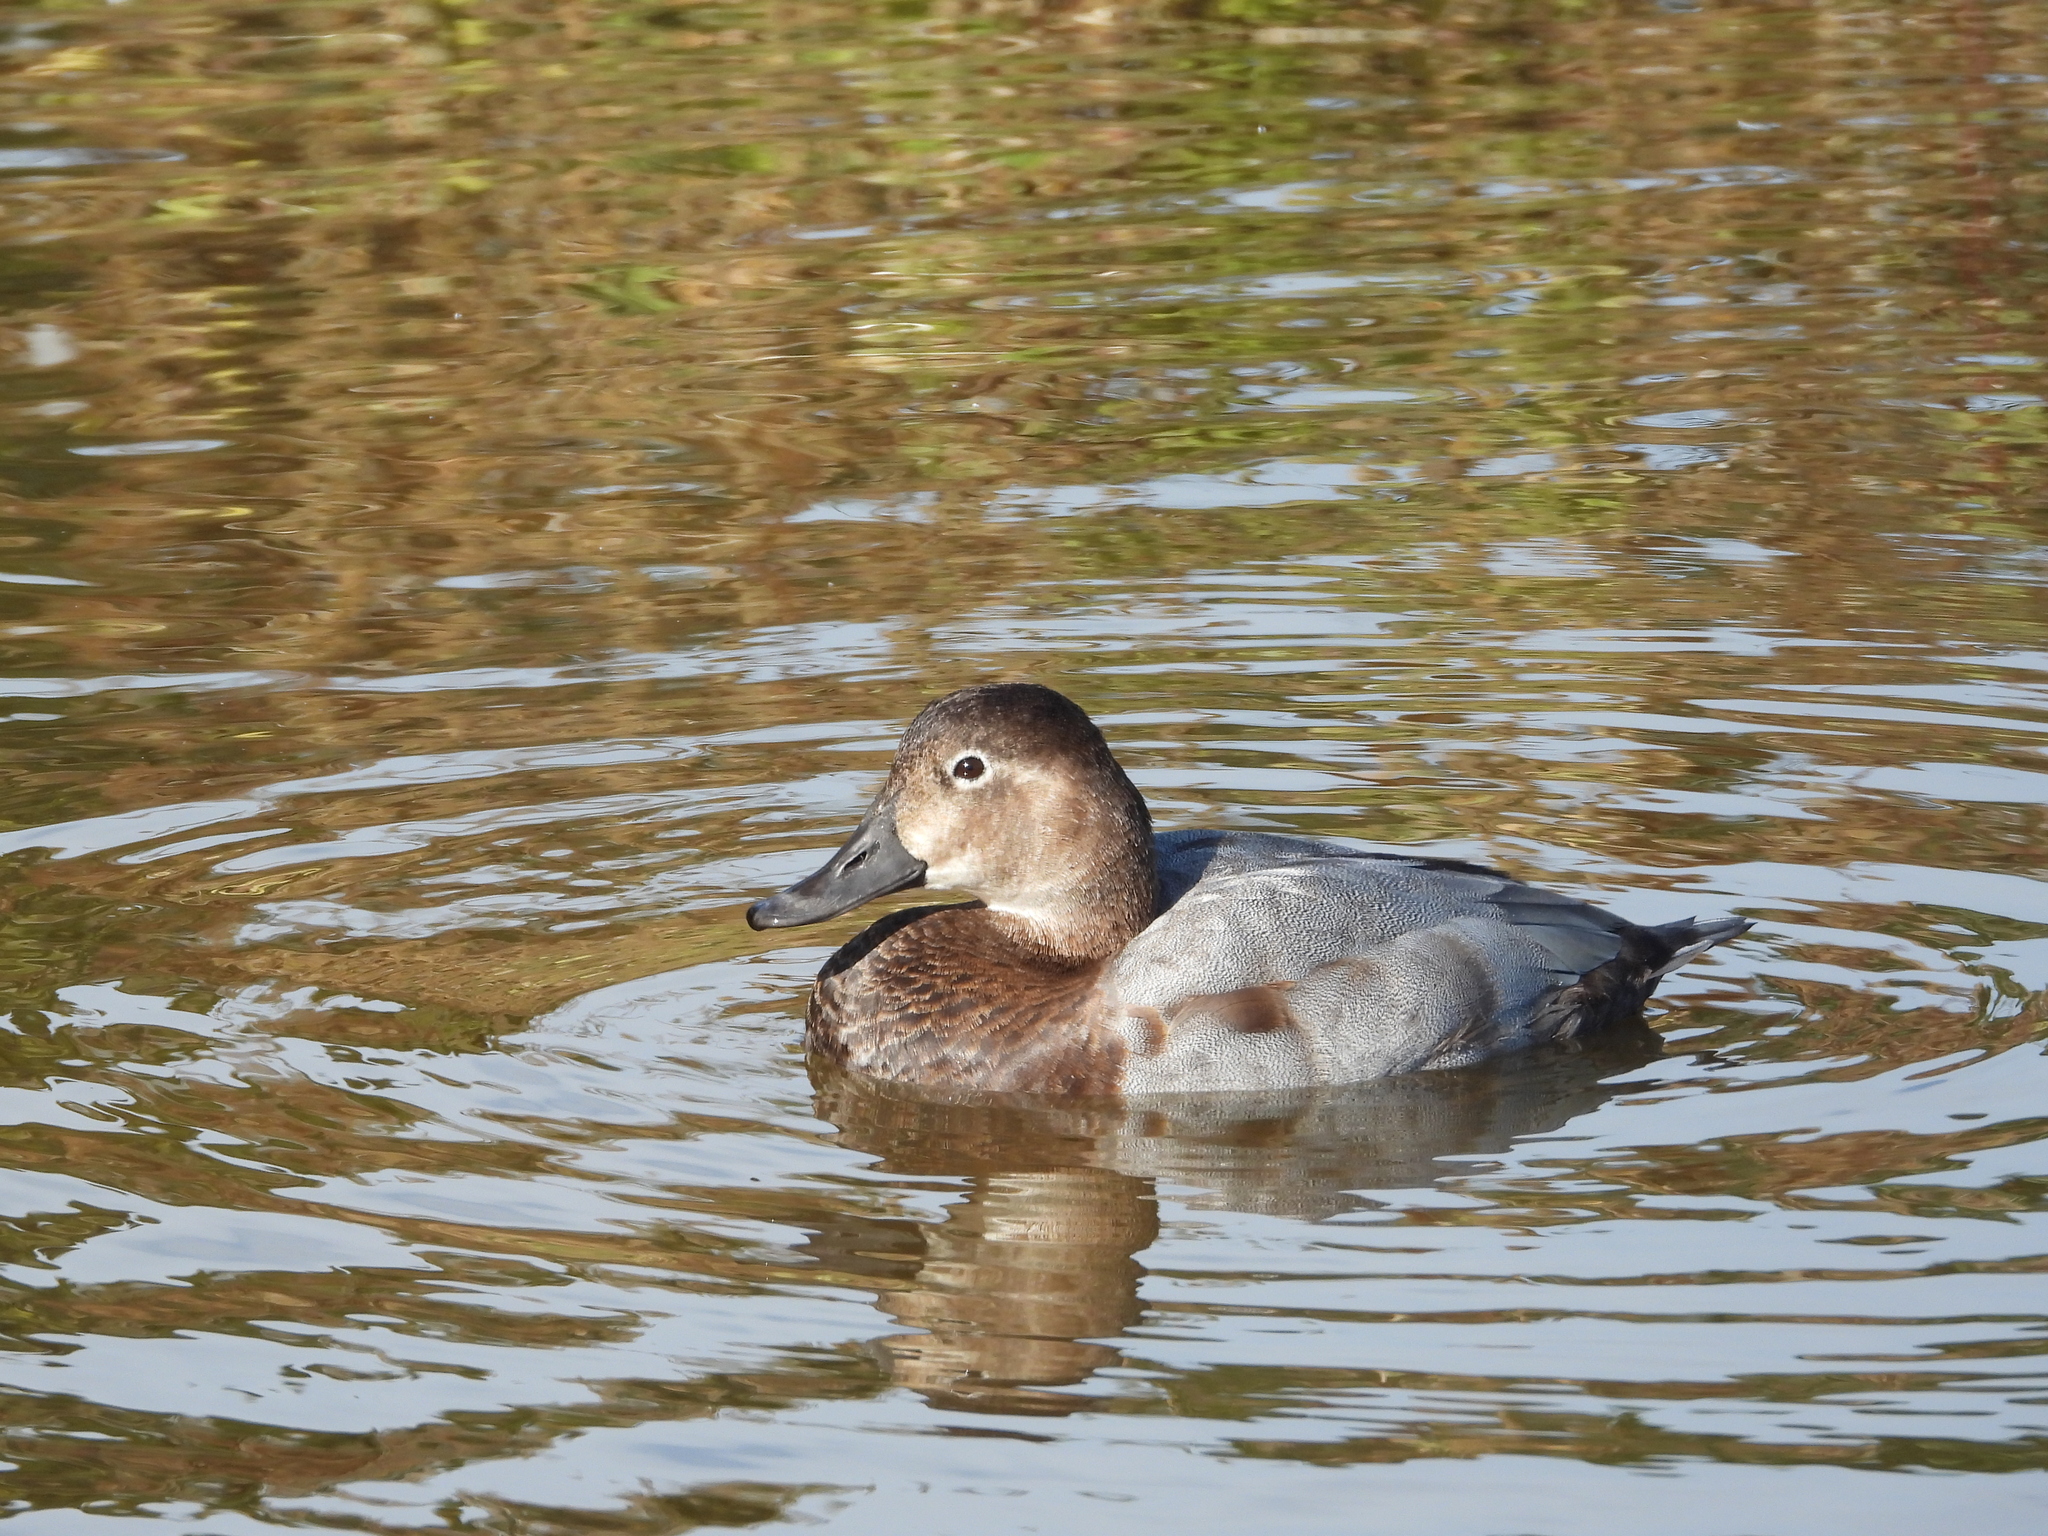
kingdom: Animalia
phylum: Chordata
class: Aves
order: Anseriformes
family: Anatidae
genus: Aythya
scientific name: Aythya ferina
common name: Common pochard
